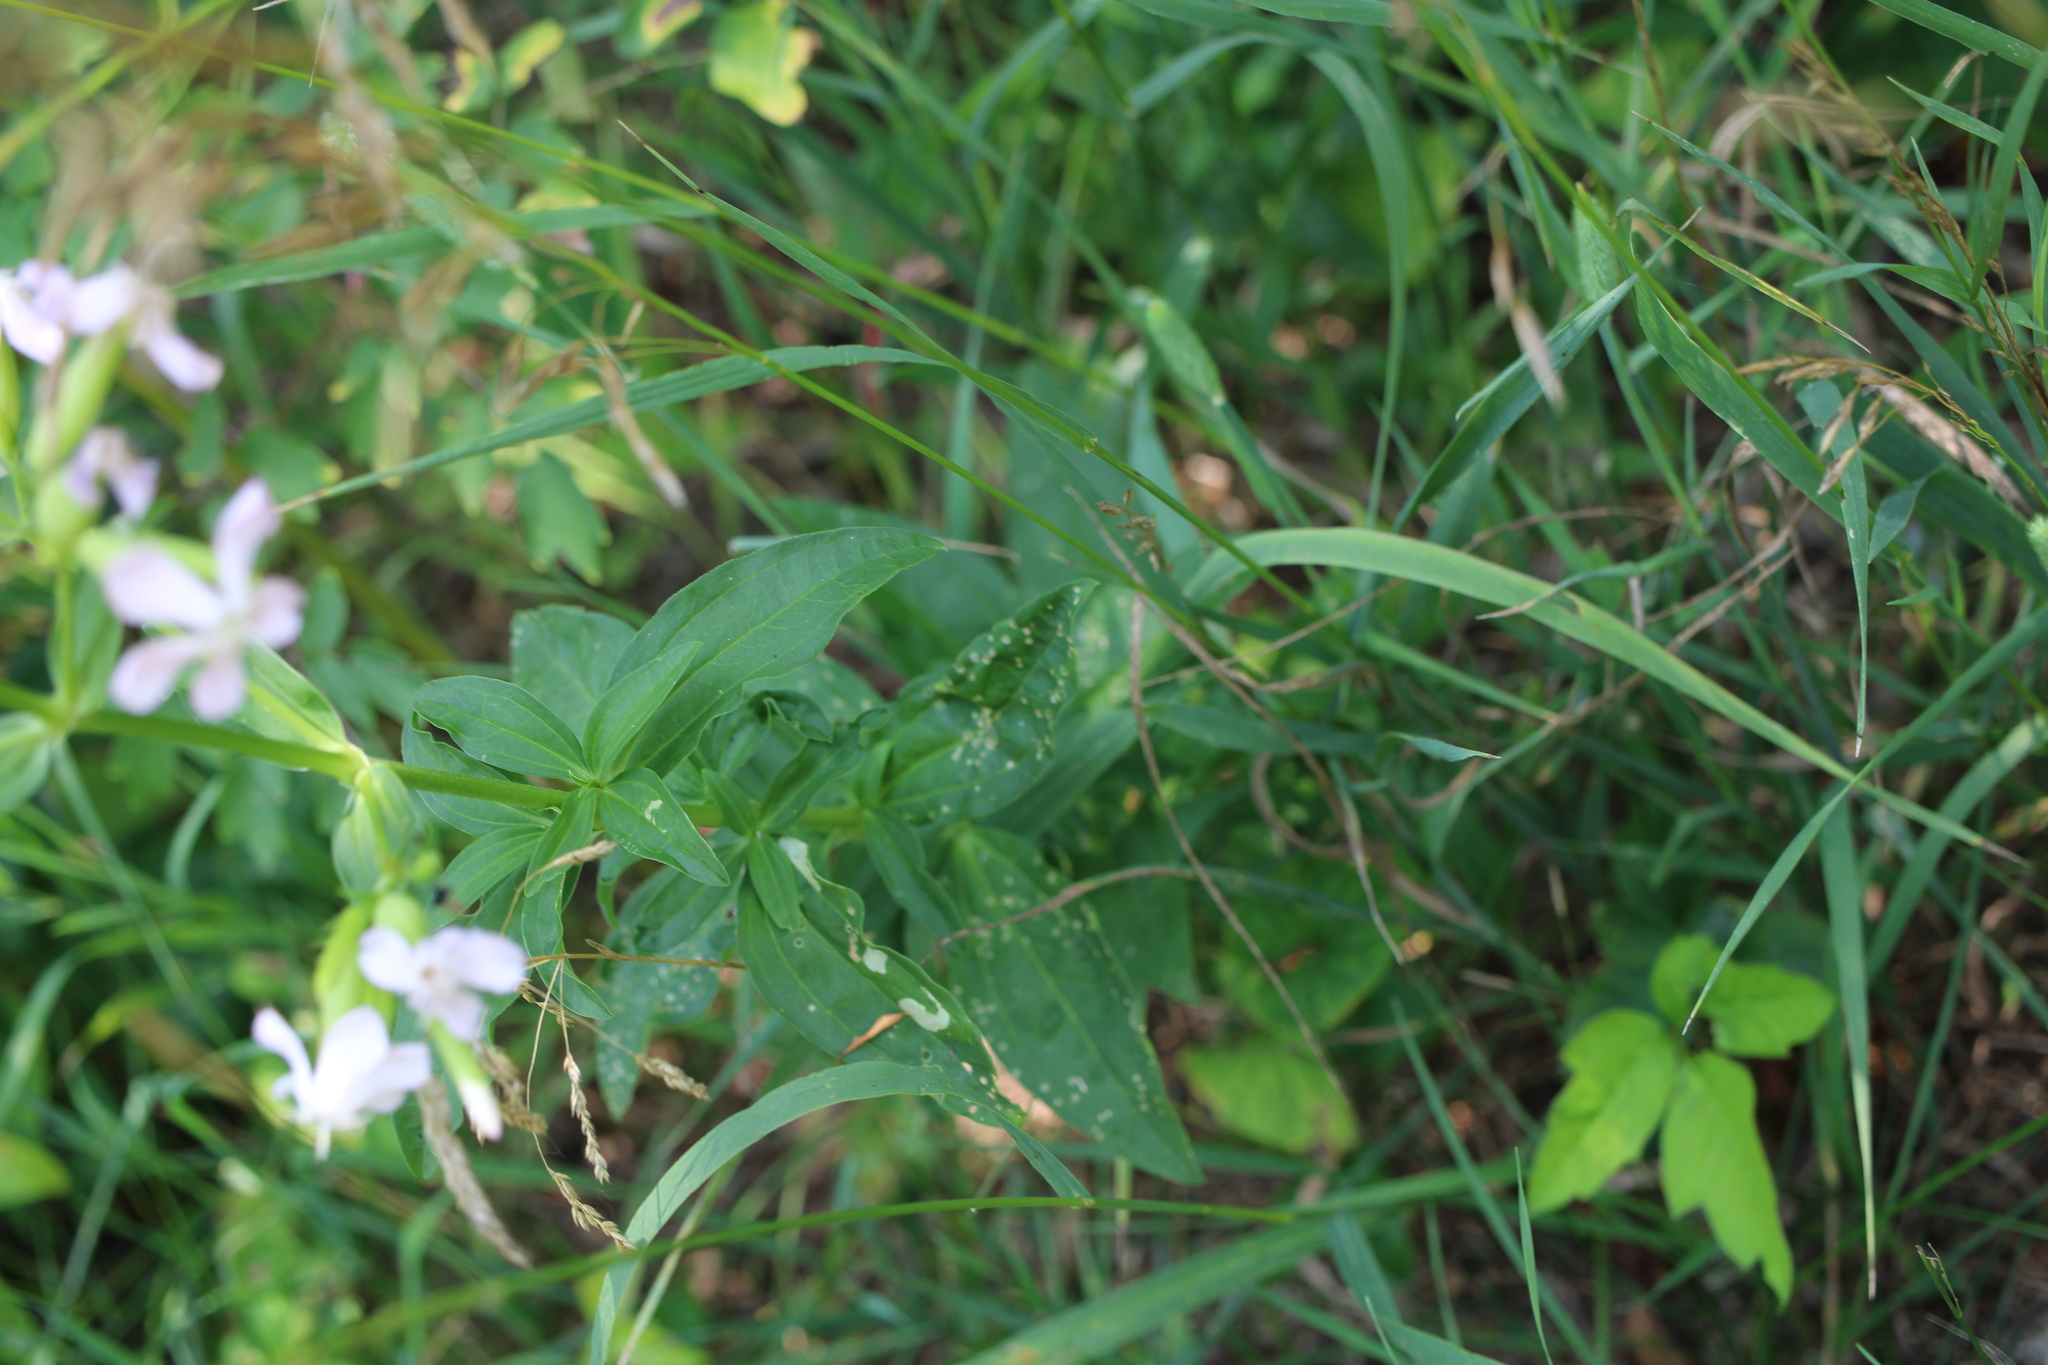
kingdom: Plantae
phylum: Tracheophyta
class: Magnoliopsida
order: Caryophyllales
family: Caryophyllaceae
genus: Saponaria
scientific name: Saponaria officinalis
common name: Soapwort
